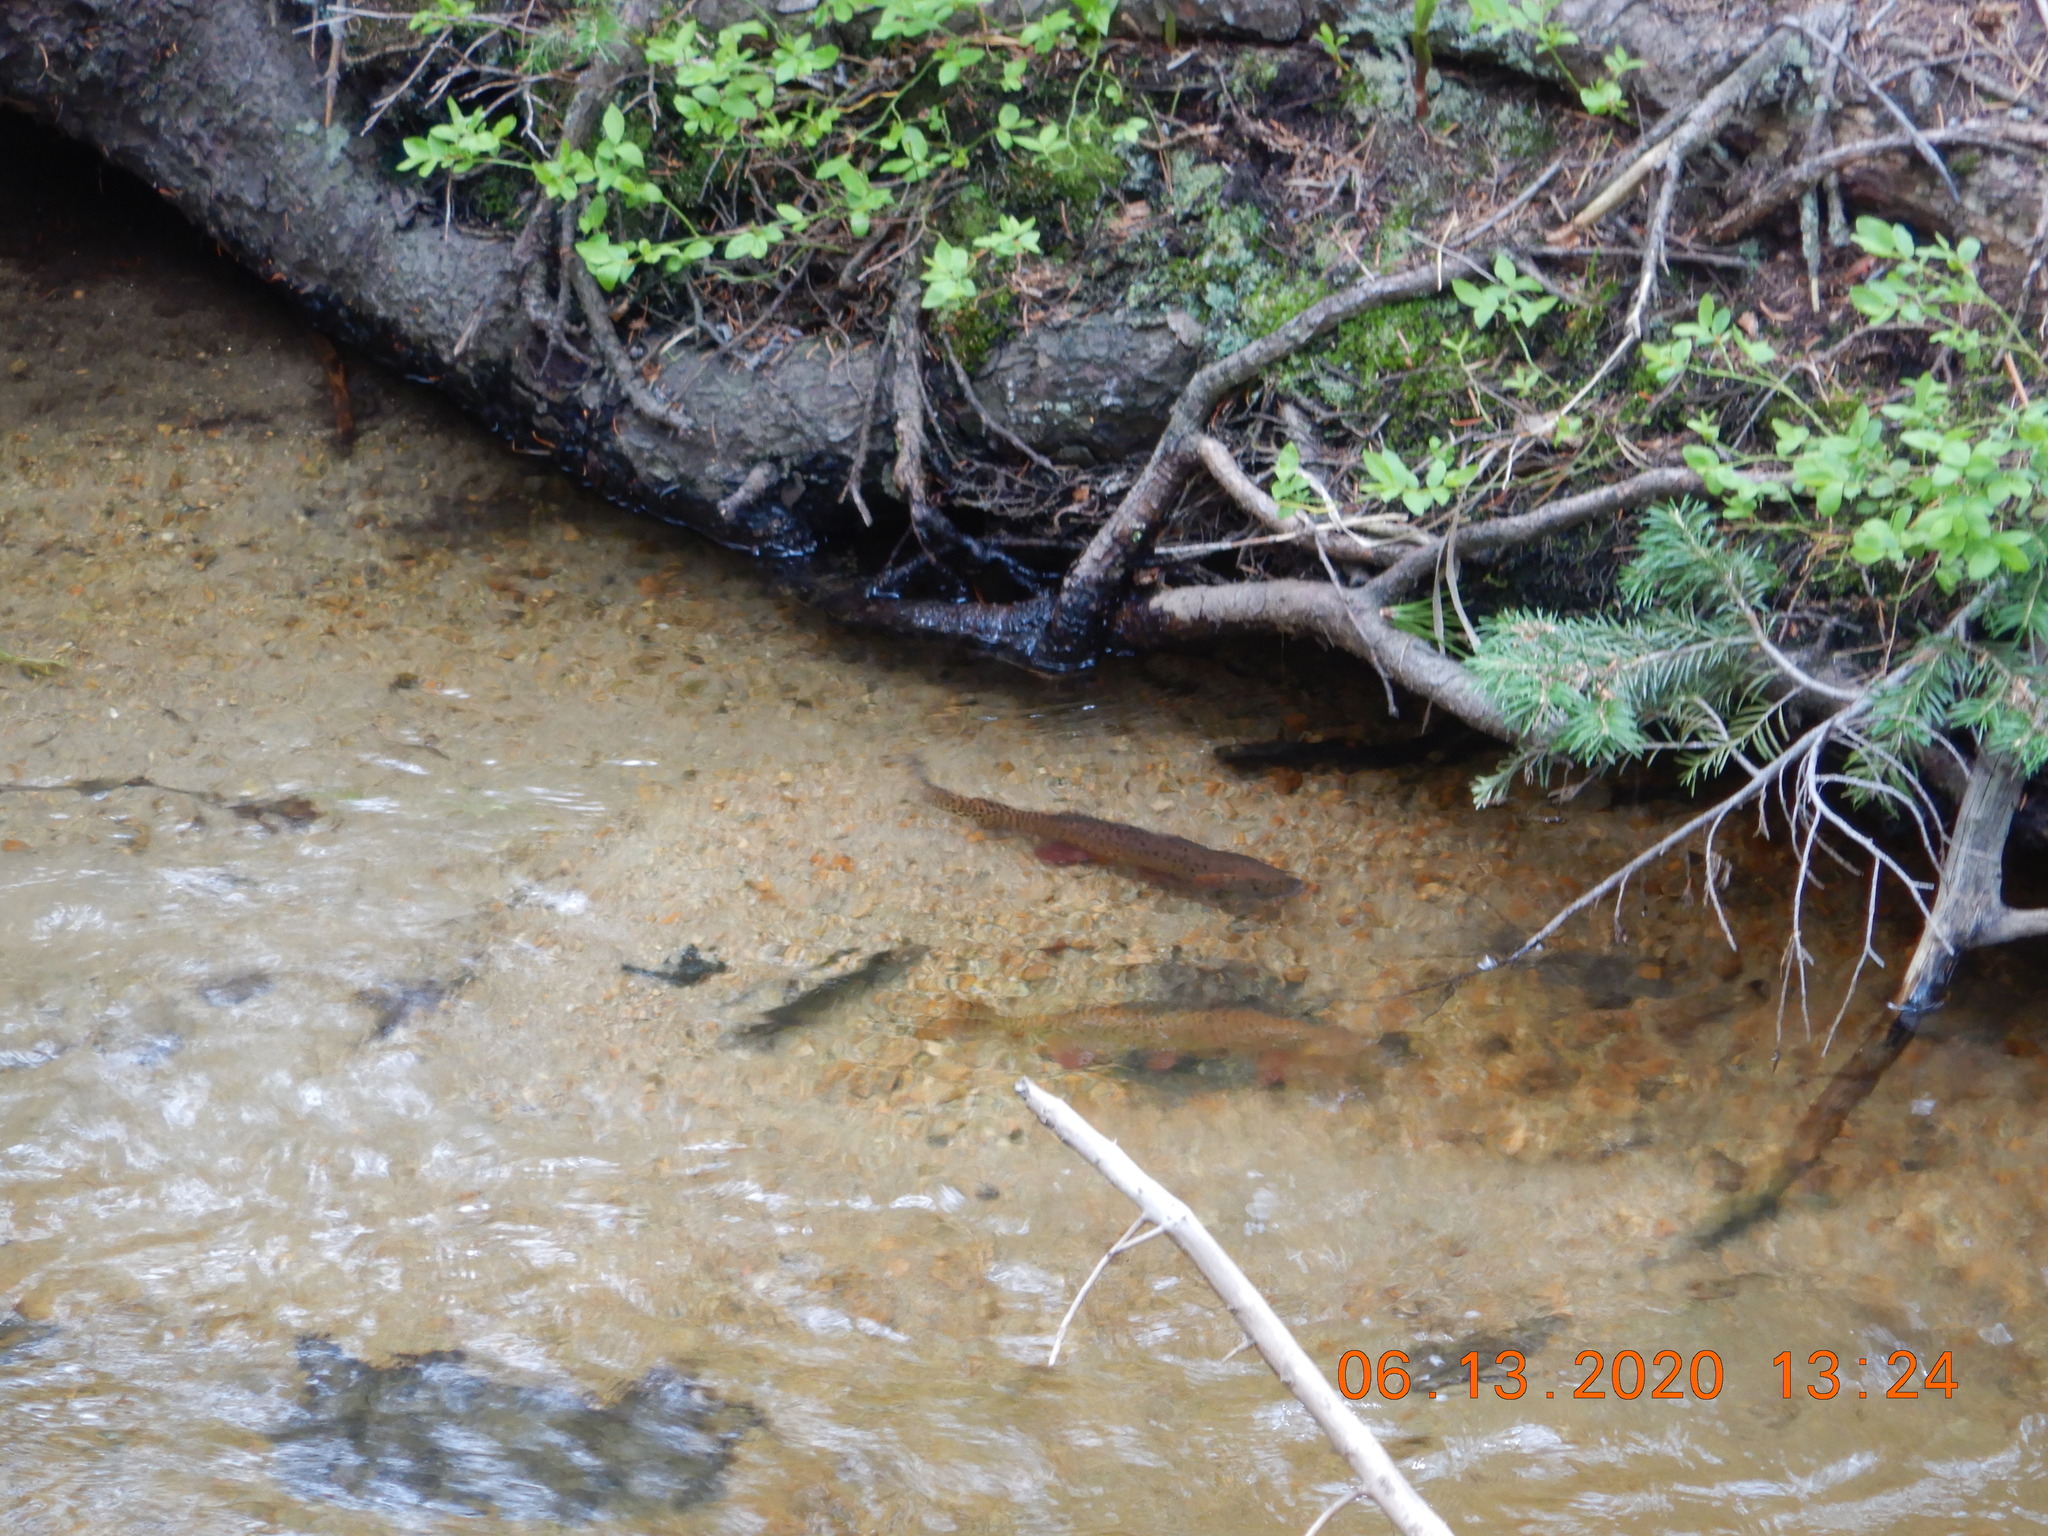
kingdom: Animalia
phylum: Chordata
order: Salmoniformes
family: Salmonidae
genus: Oncorhynchus
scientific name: Oncorhynchus virginalis
